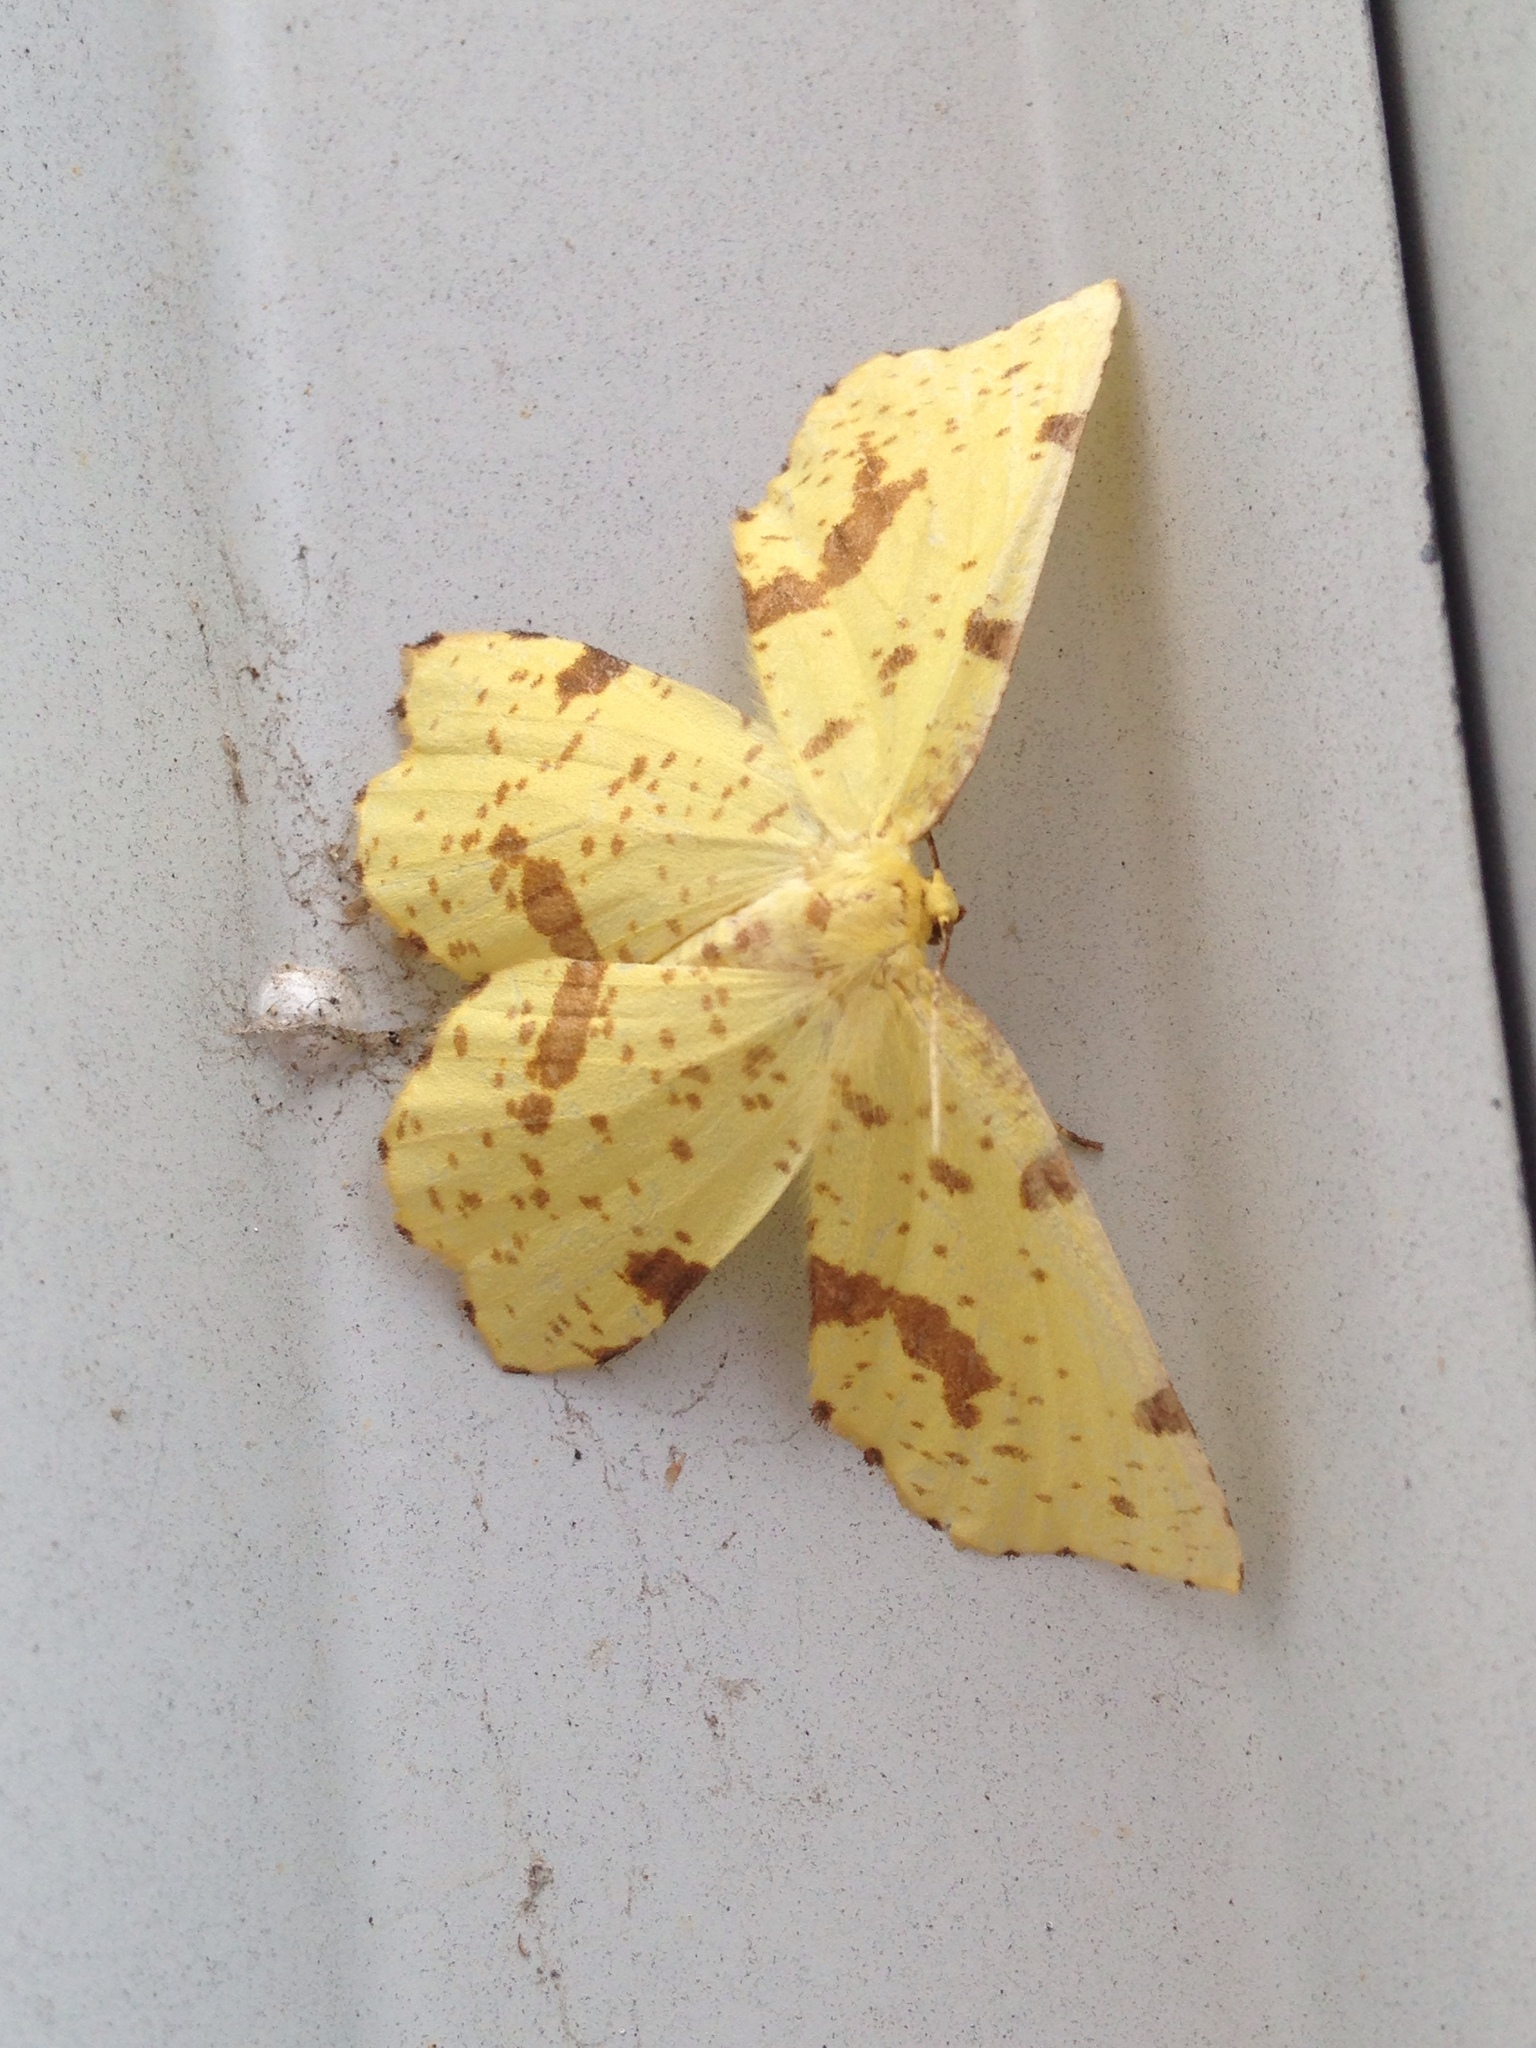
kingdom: Animalia
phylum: Arthropoda
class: Insecta
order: Lepidoptera
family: Geometridae
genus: Xanthotype
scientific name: Xanthotype
